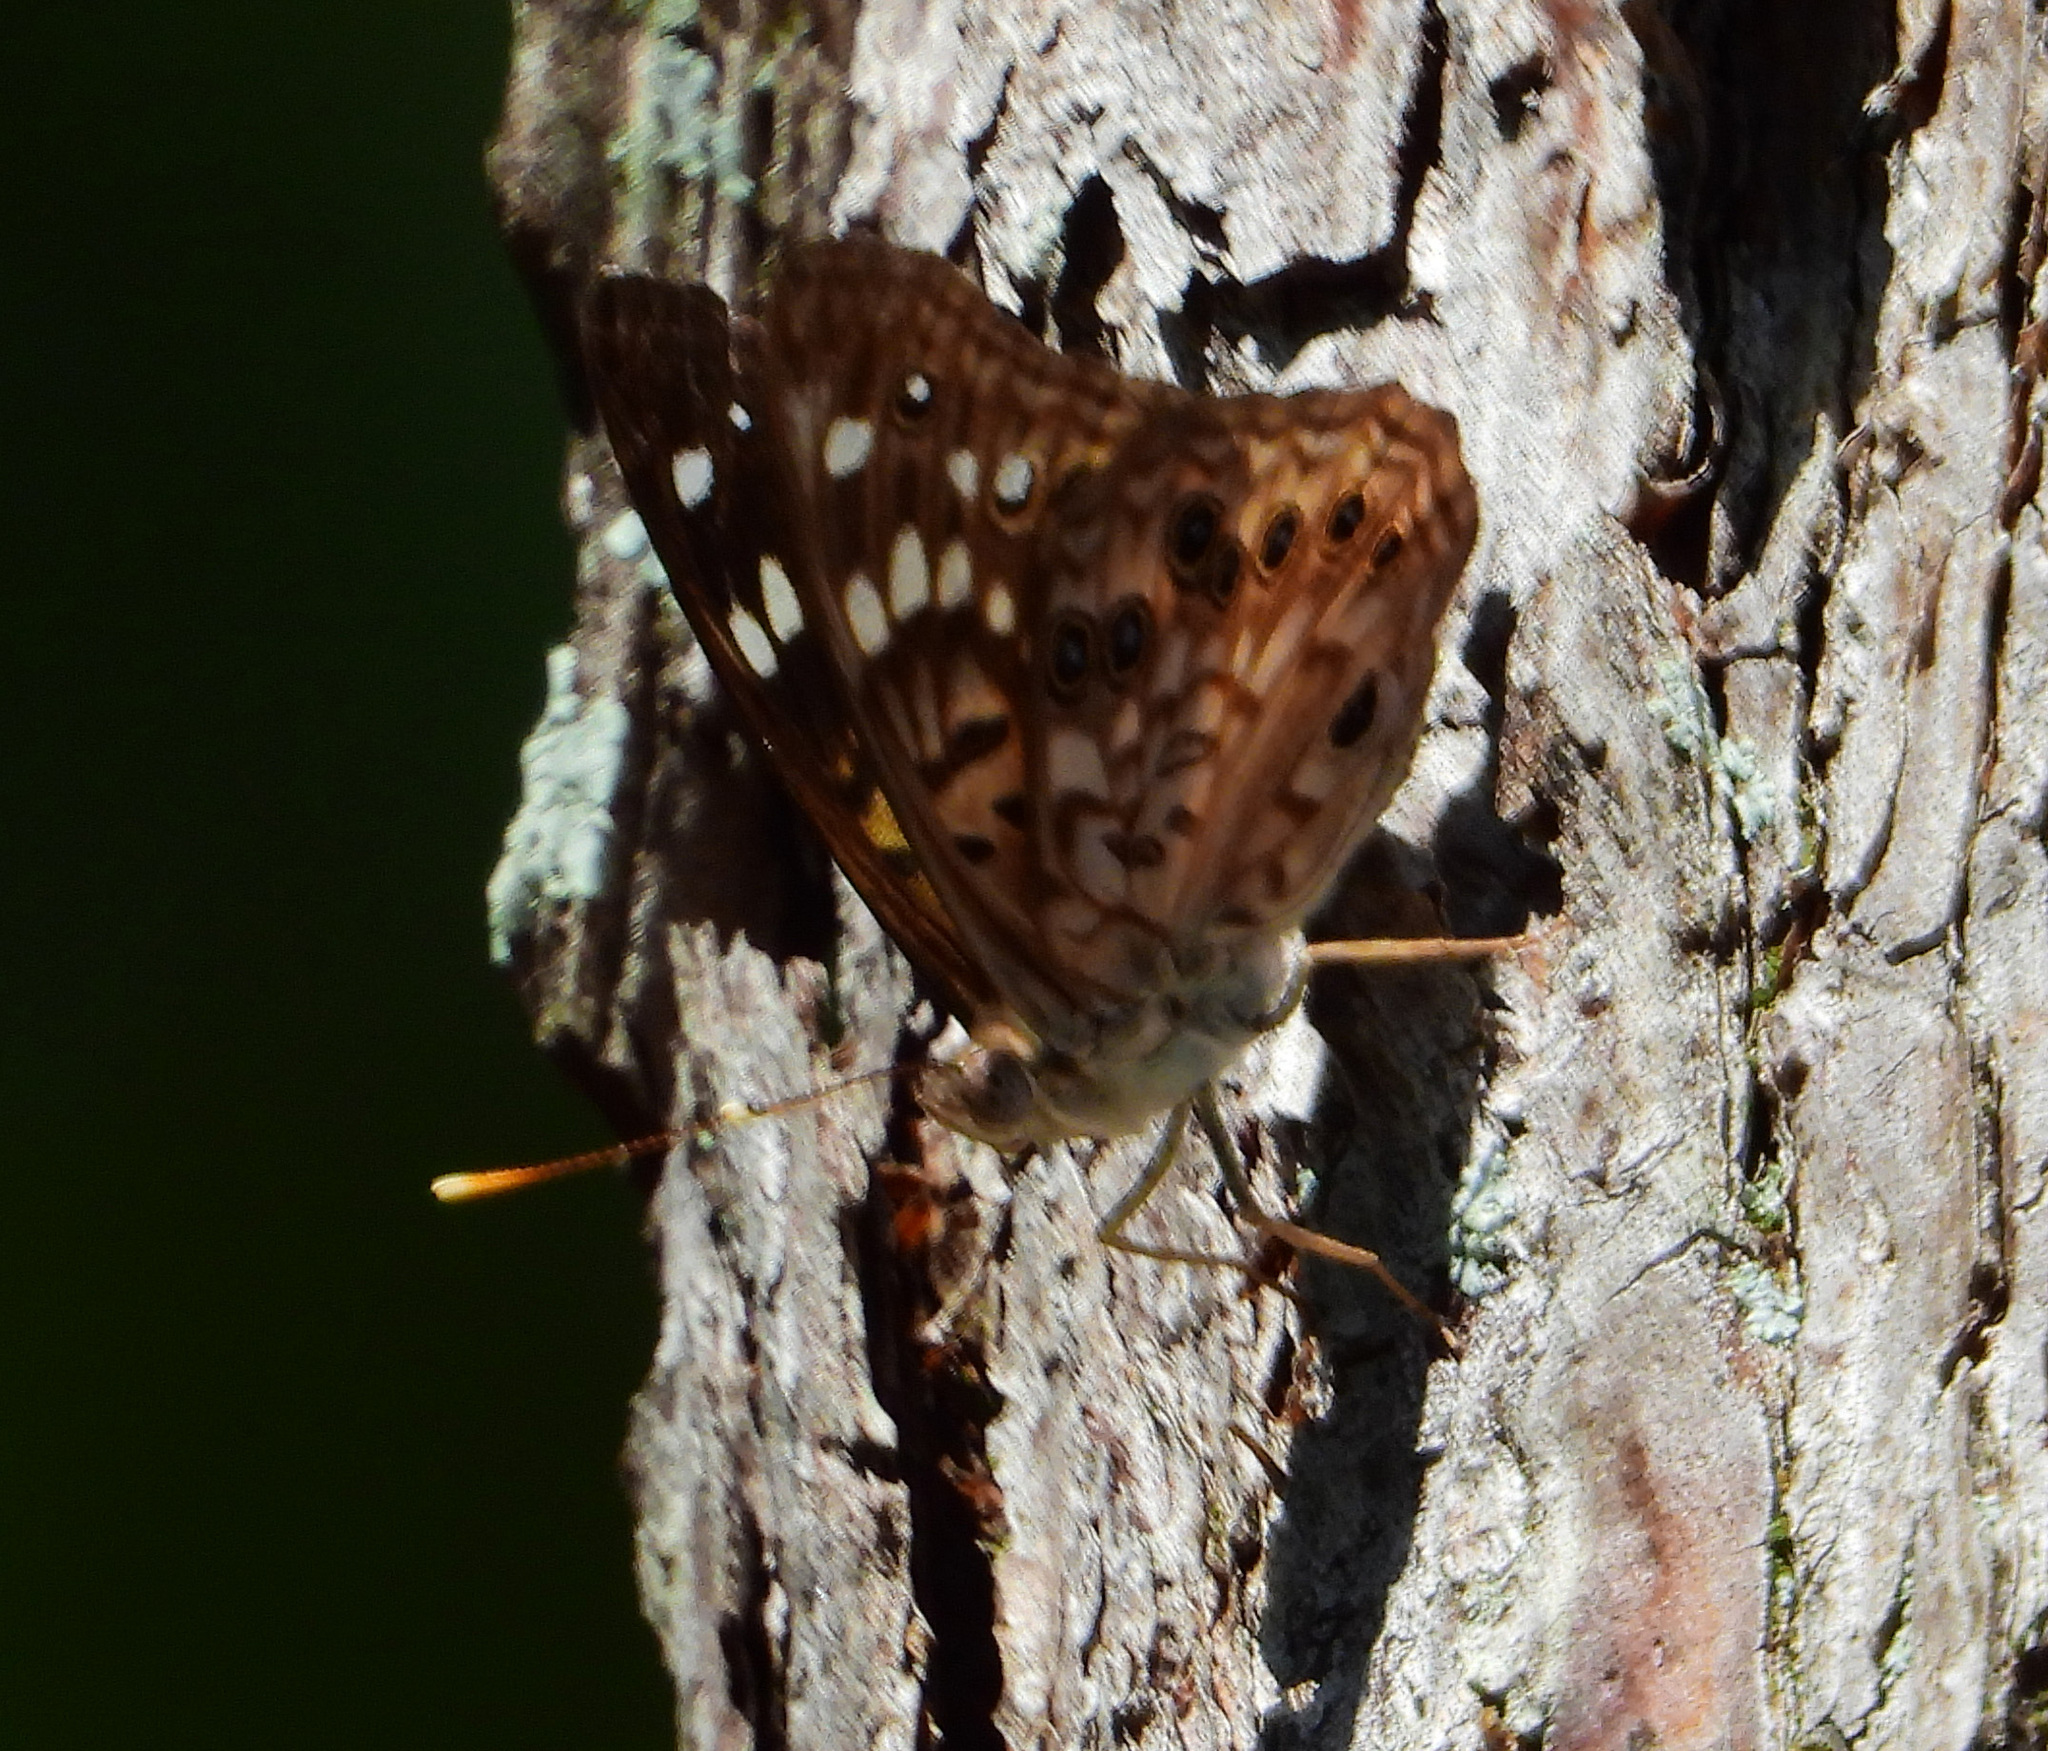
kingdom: Animalia
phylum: Arthropoda
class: Insecta
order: Lepidoptera
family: Nymphalidae
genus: Asterocampa
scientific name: Asterocampa celtis
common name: Hackberry emperor
